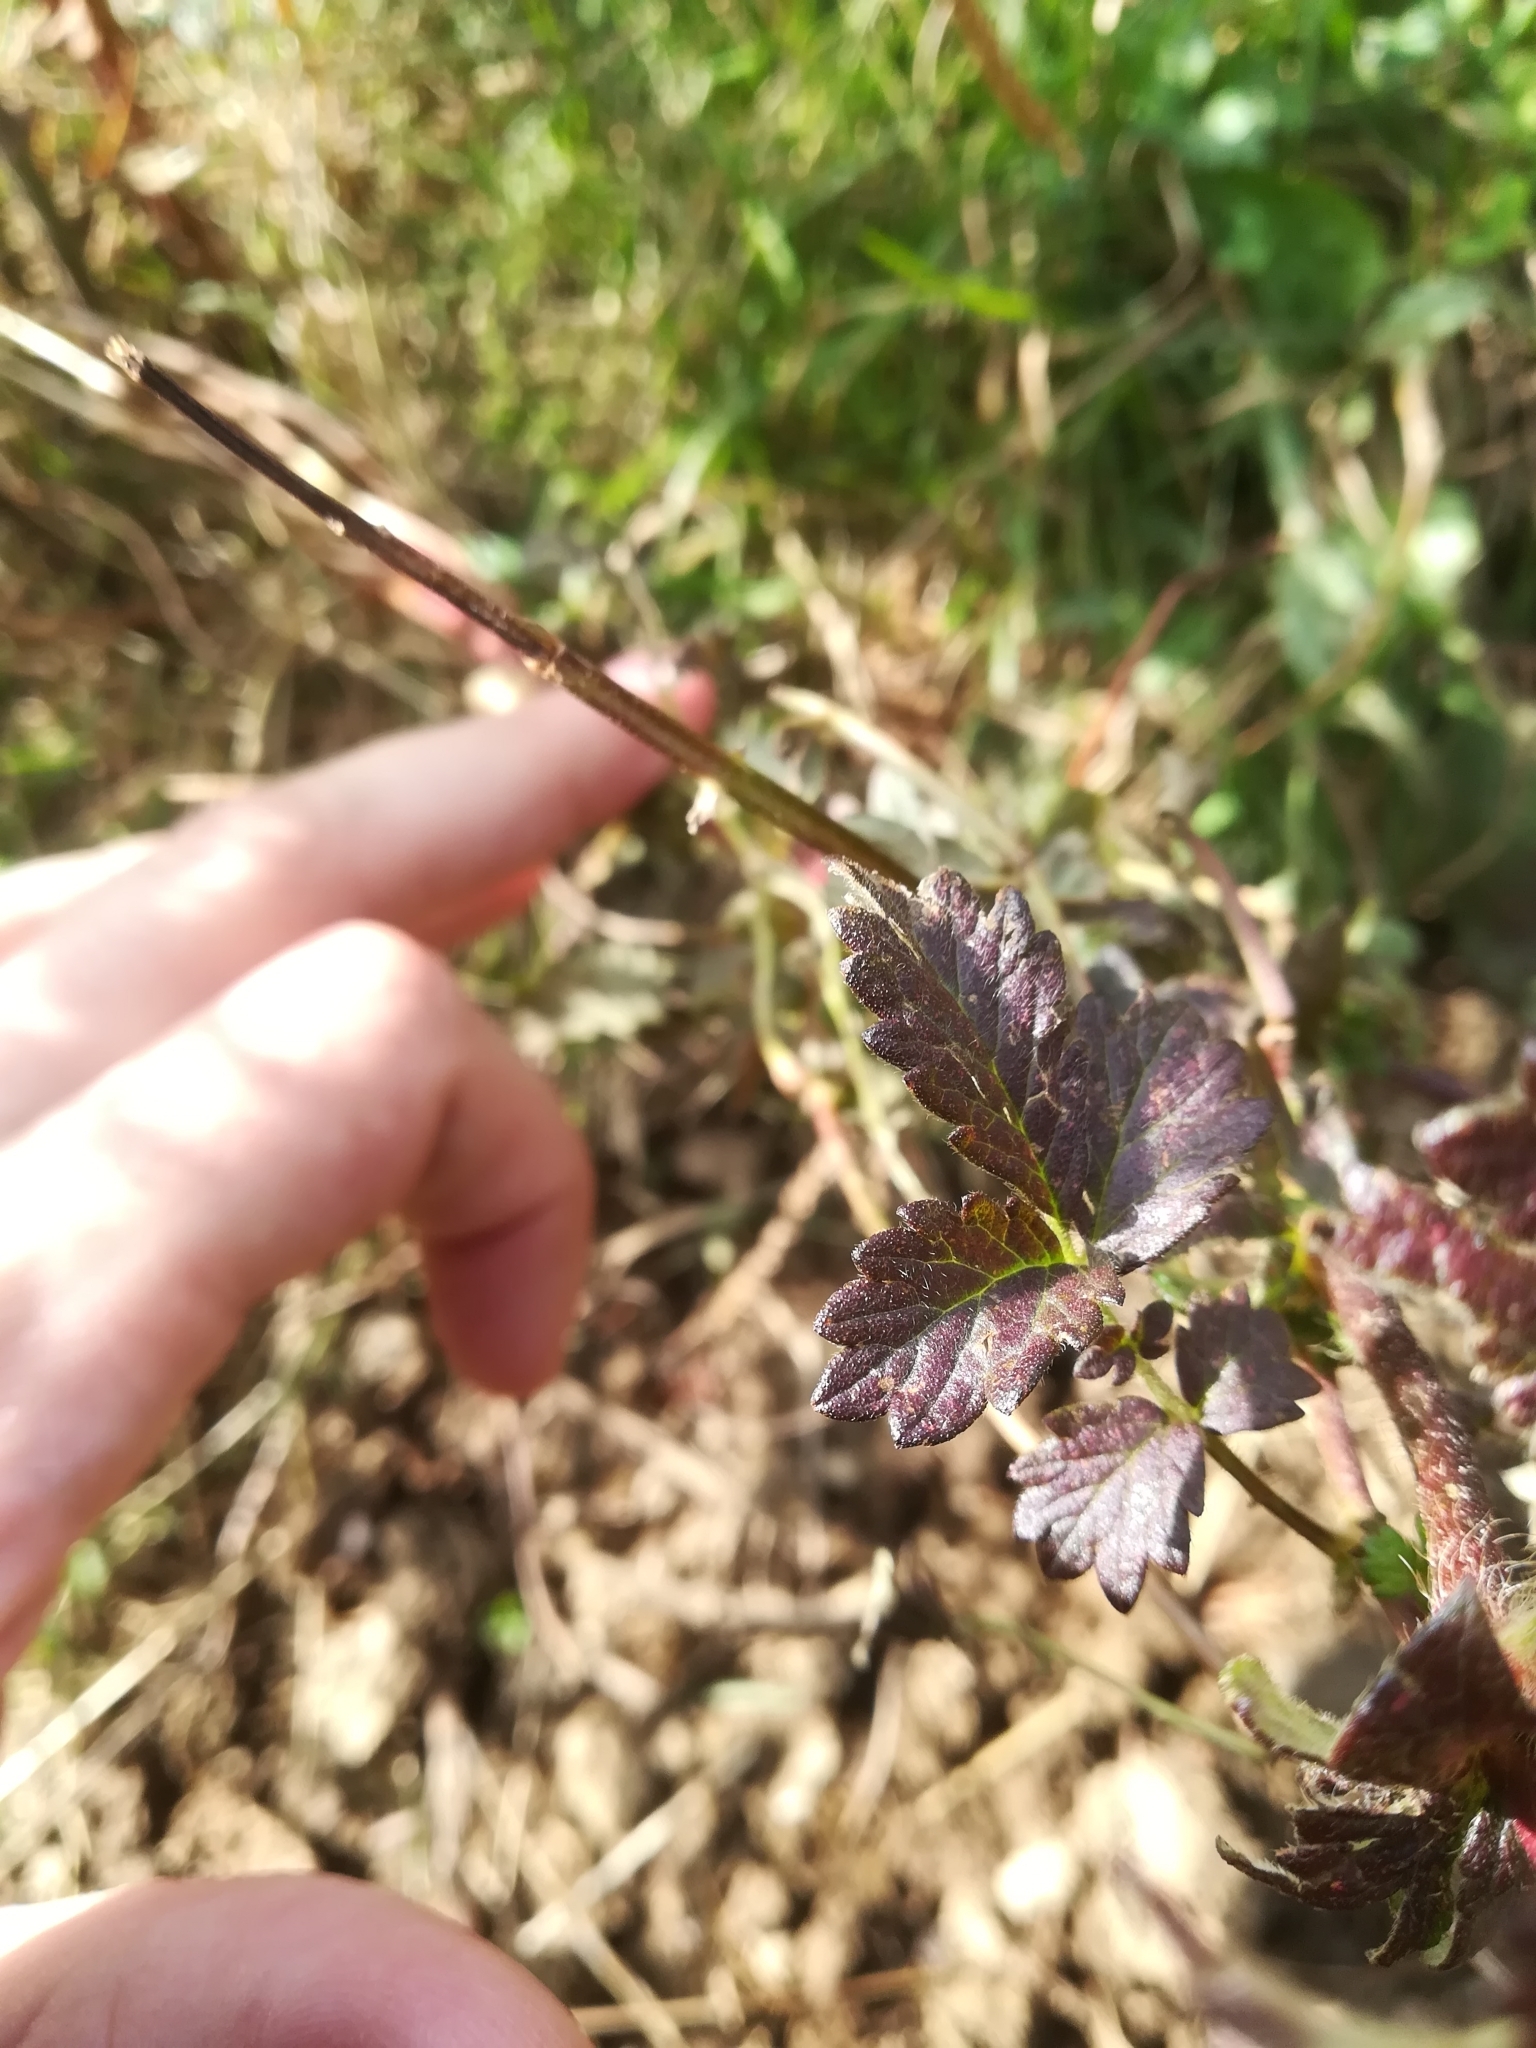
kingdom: Plantae
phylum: Tracheophyta
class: Magnoliopsida
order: Rosales
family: Rosaceae
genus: Agrimonia
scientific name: Agrimonia eupatoria
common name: Agrimony
